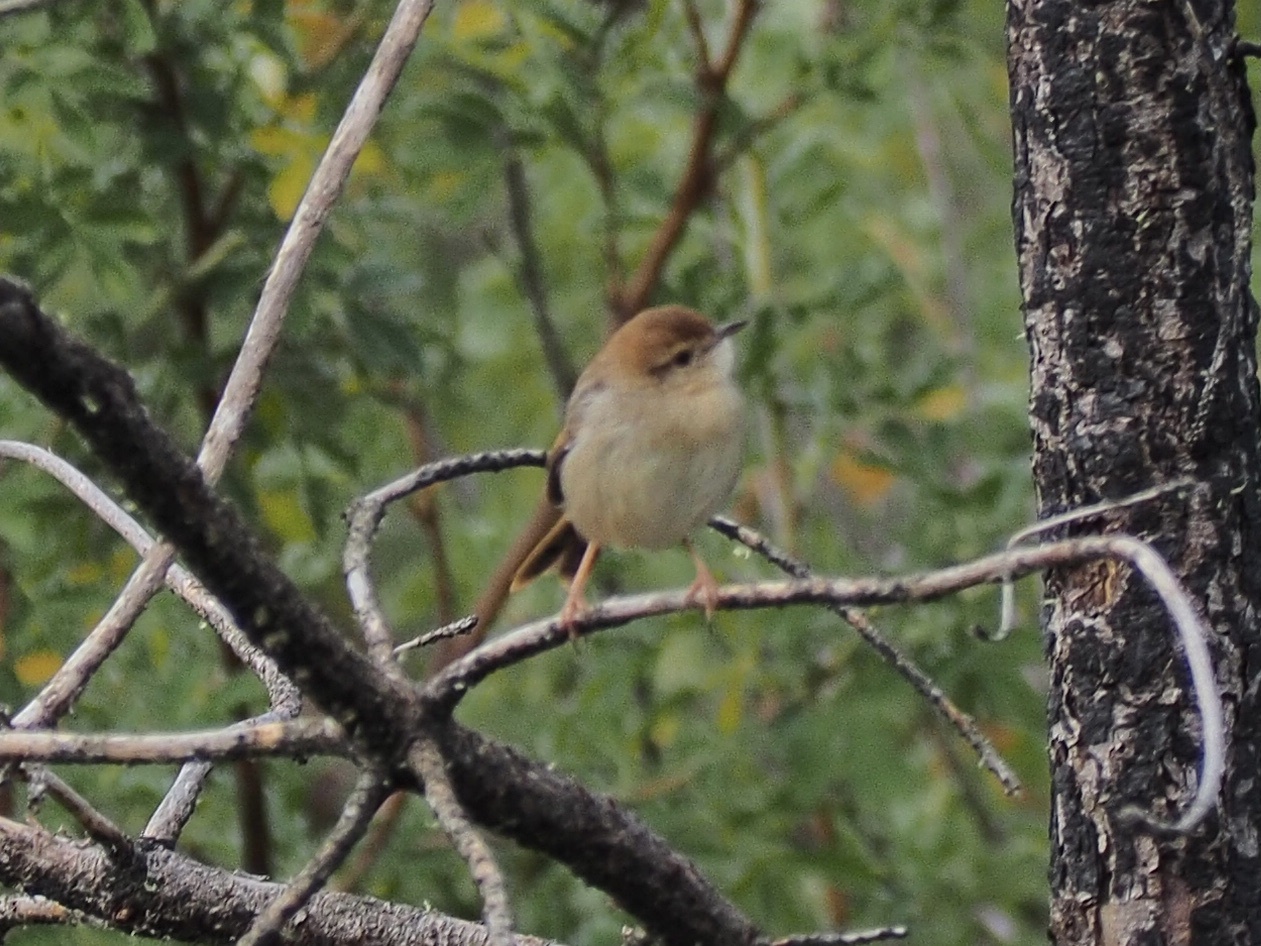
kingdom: Animalia
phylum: Chordata
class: Aves
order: Passeriformes
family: Cisticolidae
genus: Cisticola
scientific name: Cisticola lais
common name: Wailing cisticola
